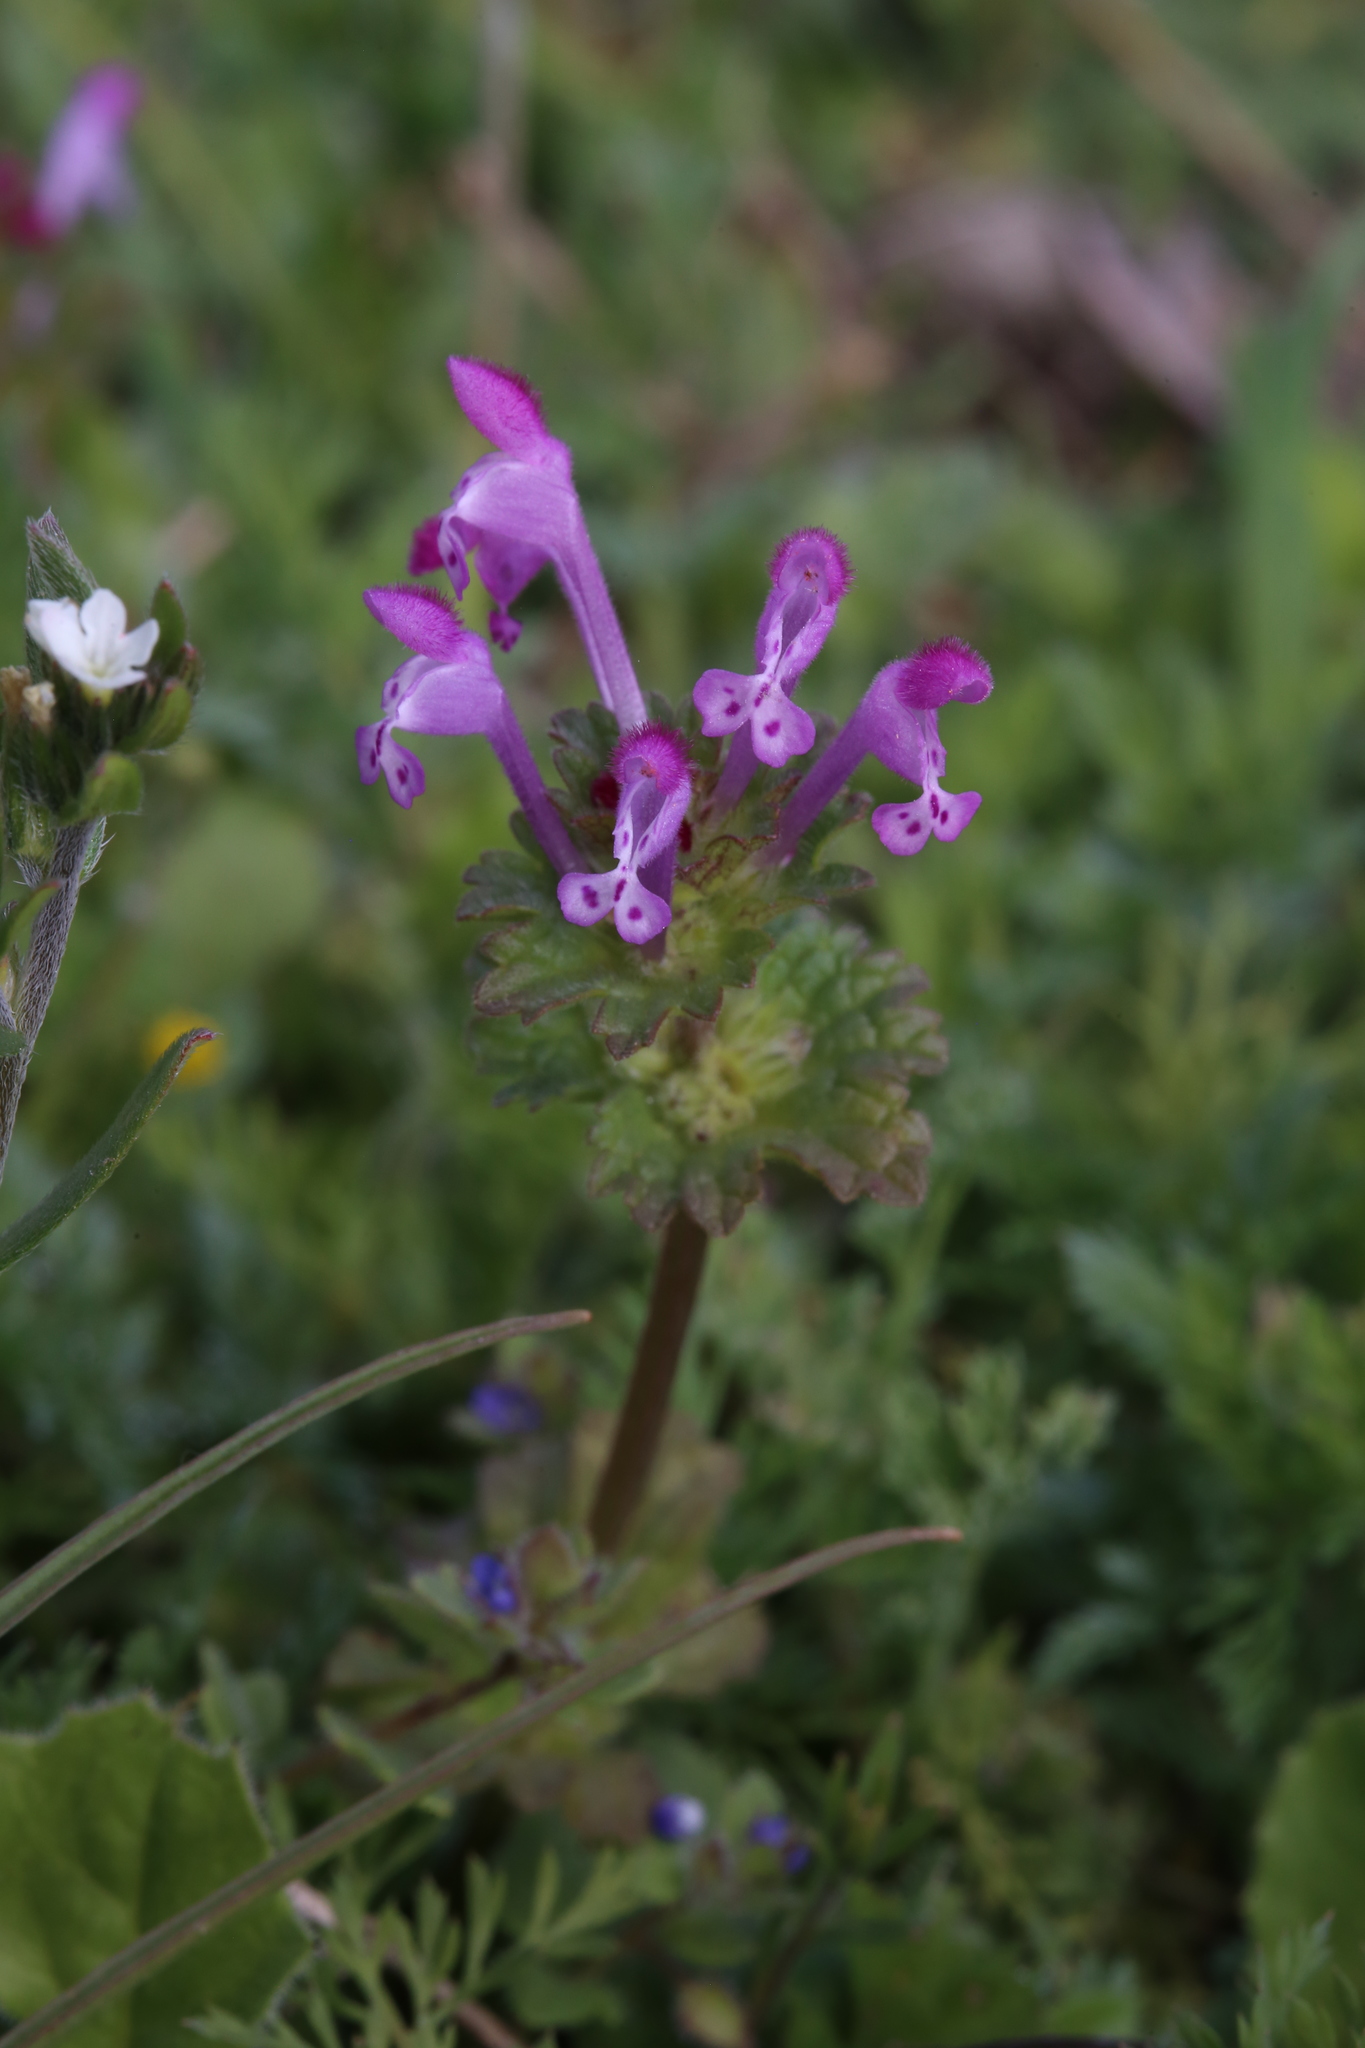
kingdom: Plantae
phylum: Tracheophyta
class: Magnoliopsida
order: Lamiales
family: Lamiaceae
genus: Lamium
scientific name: Lamium amplexicaule
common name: Henbit dead-nettle
